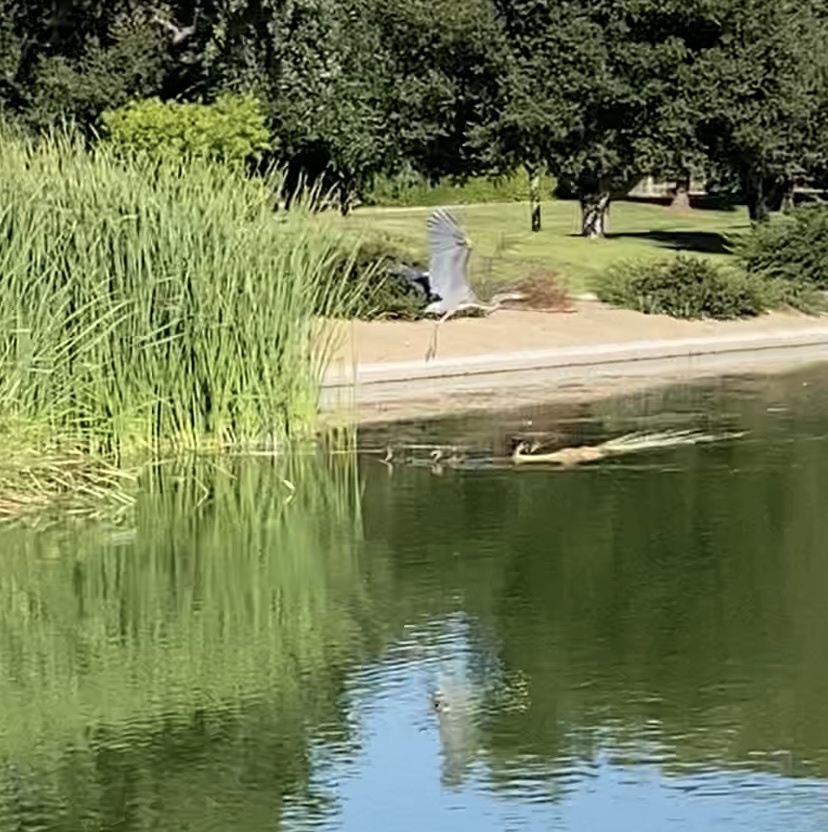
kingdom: Animalia
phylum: Chordata
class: Aves
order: Pelecaniformes
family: Ardeidae
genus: Ardea
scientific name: Ardea herodias
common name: Great blue heron
